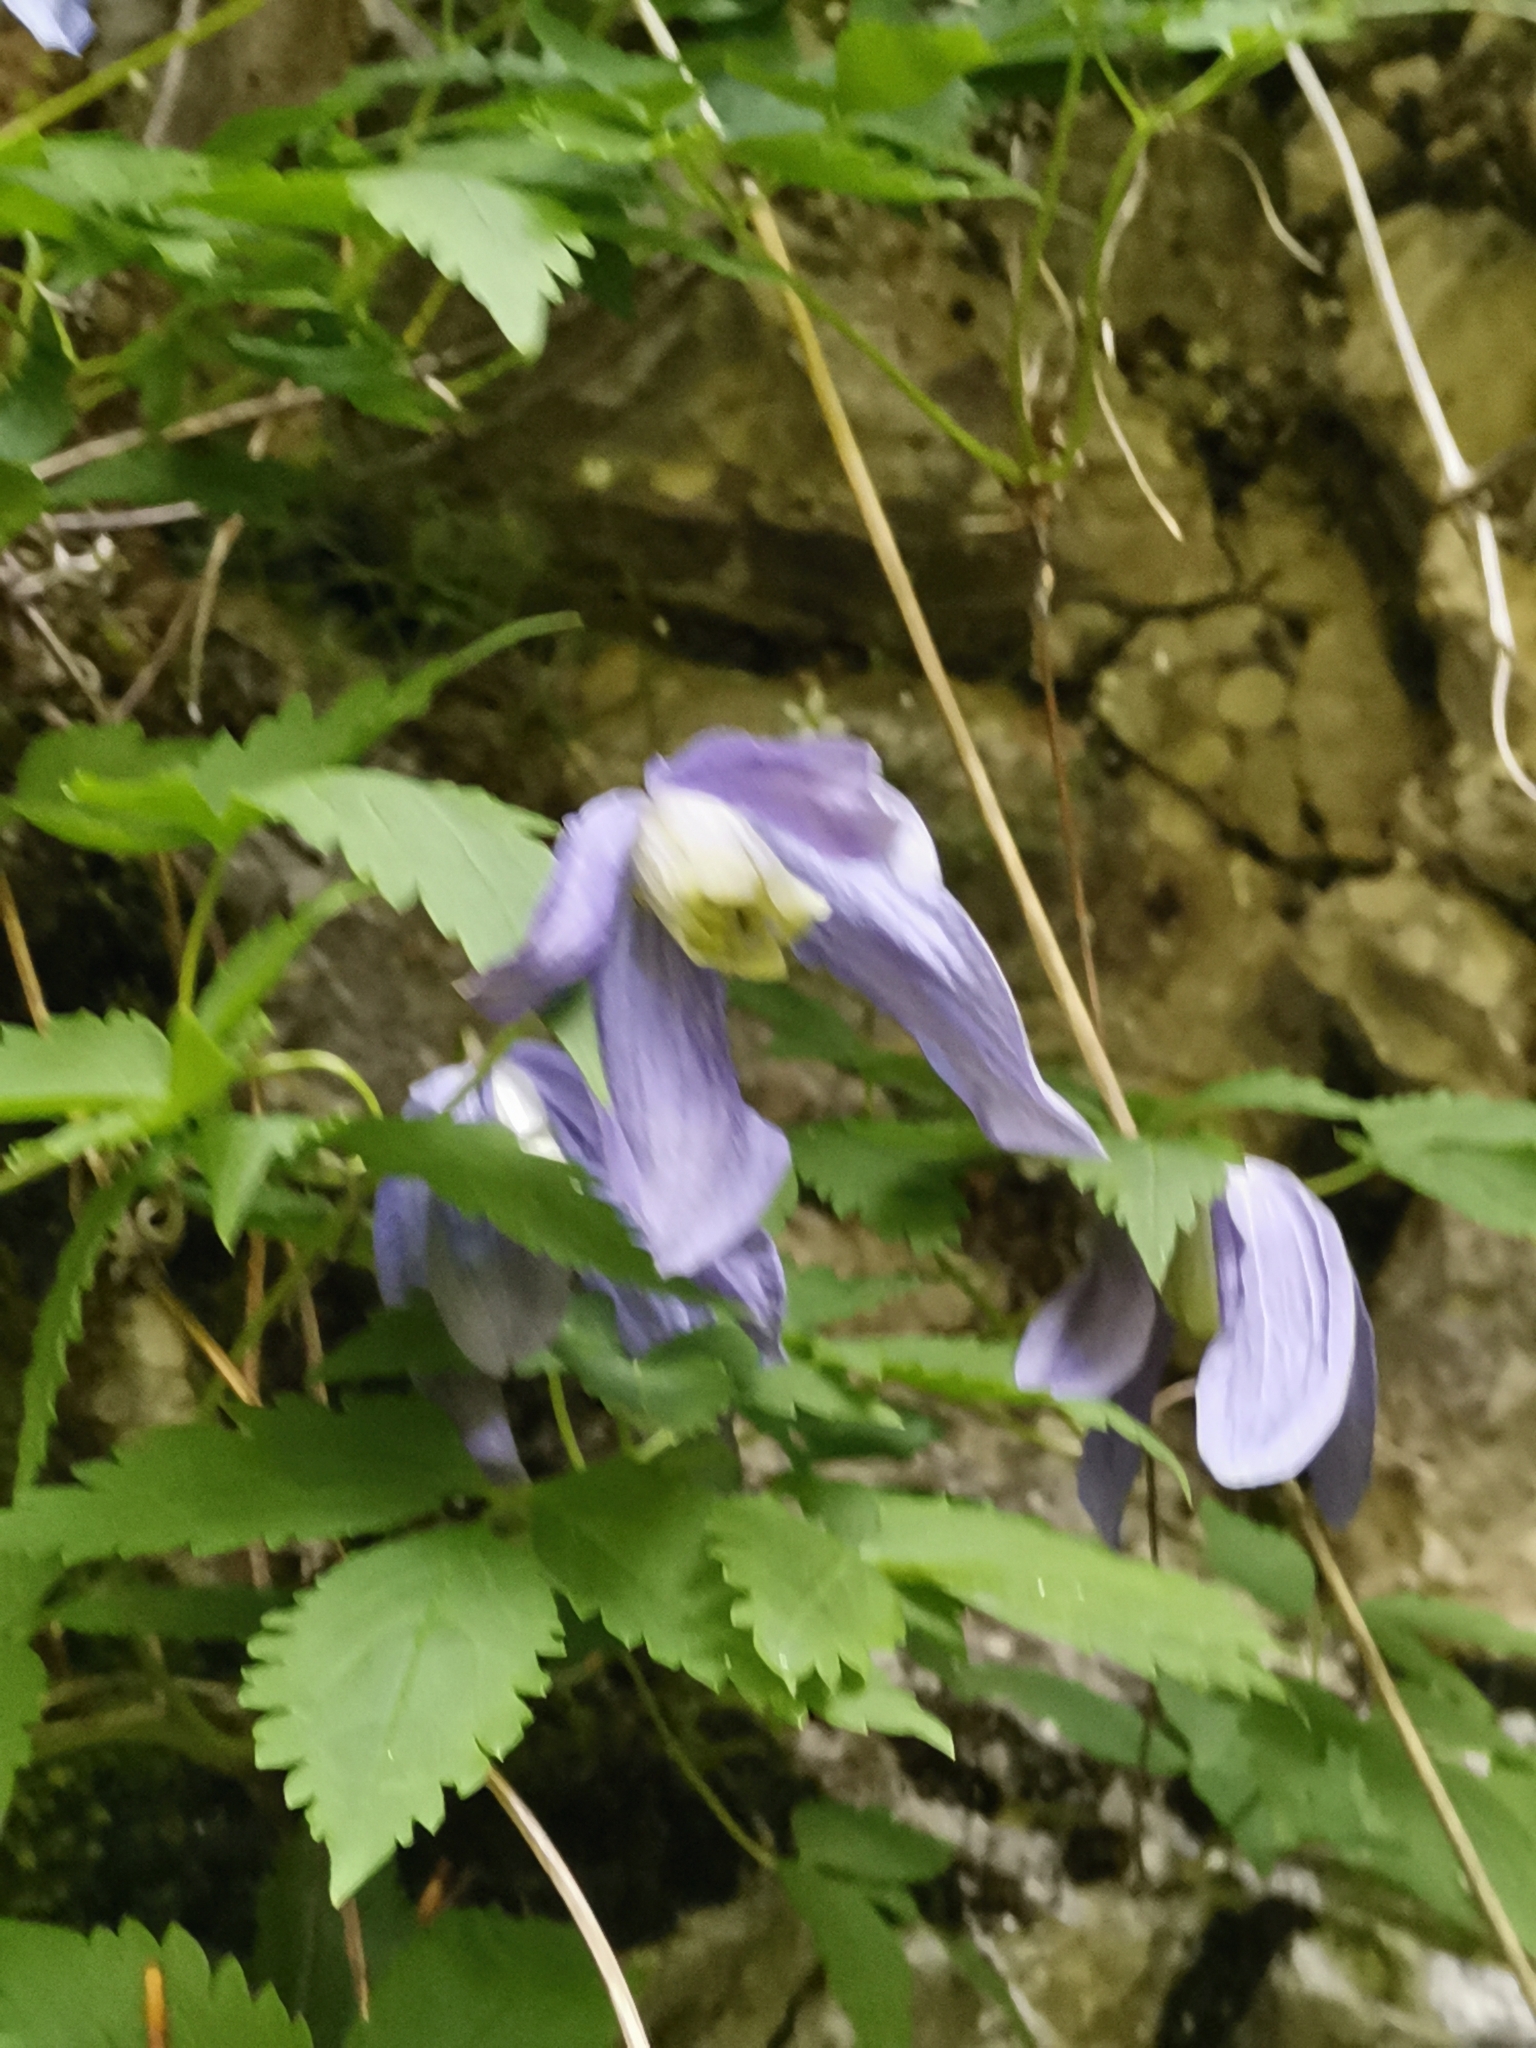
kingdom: Plantae
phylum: Tracheophyta
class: Magnoliopsida
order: Ranunculales
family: Ranunculaceae
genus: Clematis
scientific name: Clematis alpina
